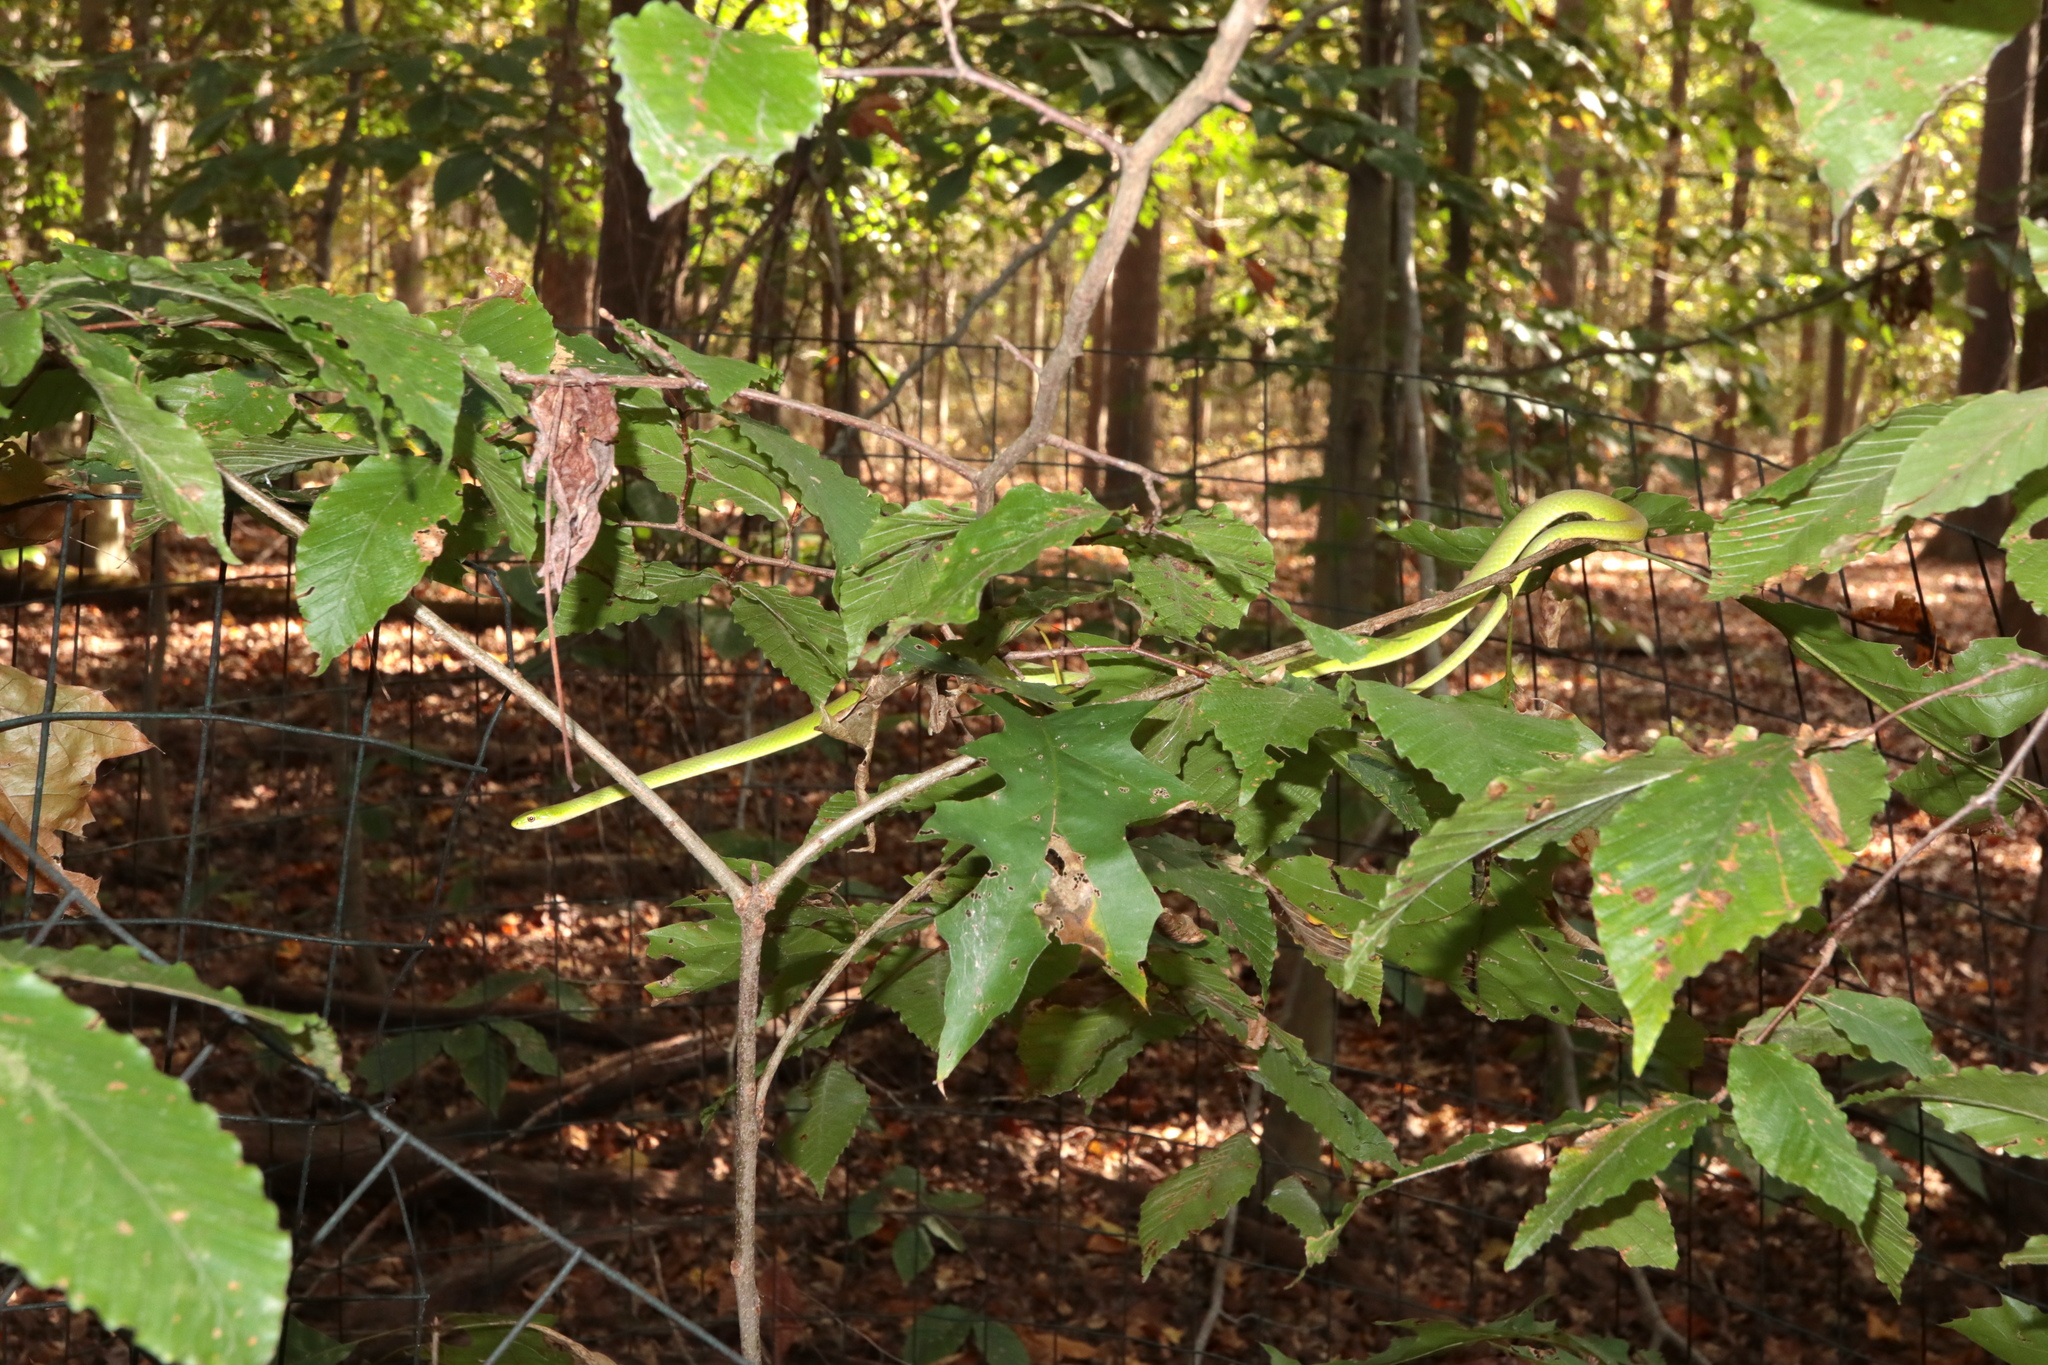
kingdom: Animalia
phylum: Chordata
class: Squamata
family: Colubridae
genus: Opheodrys
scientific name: Opheodrys aestivus
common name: Rough greensnake
